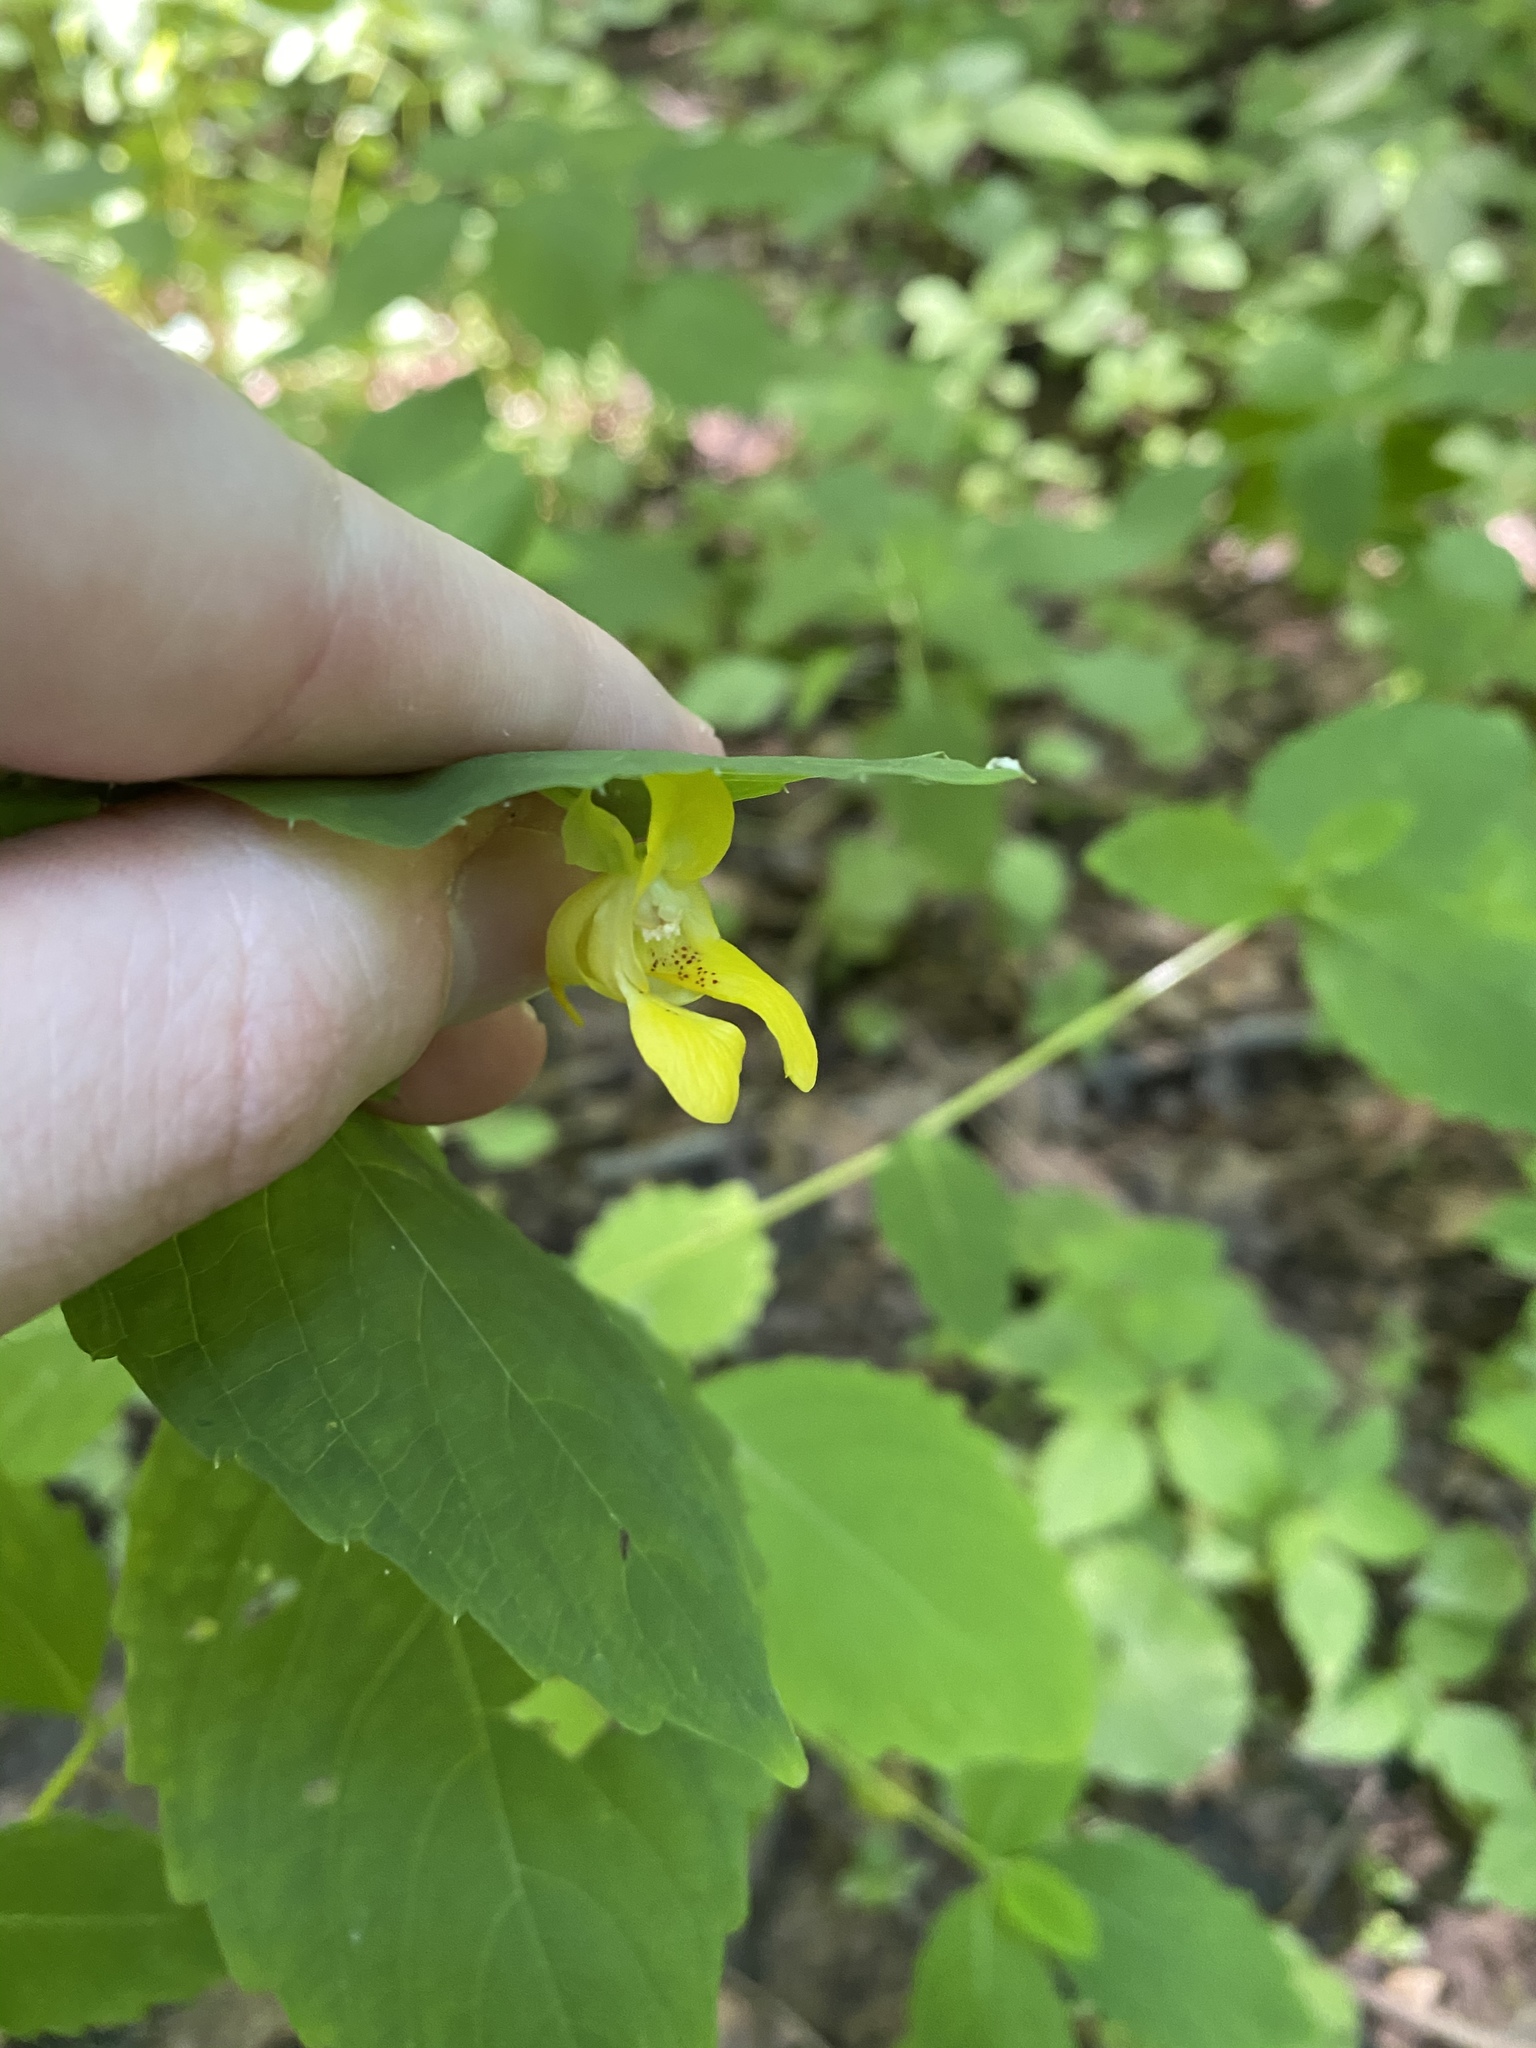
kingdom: Plantae
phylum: Tracheophyta
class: Magnoliopsida
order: Ericales
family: Balsaminaceae
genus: Impatiens
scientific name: Impatiens pallida
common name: Pale snapweed
